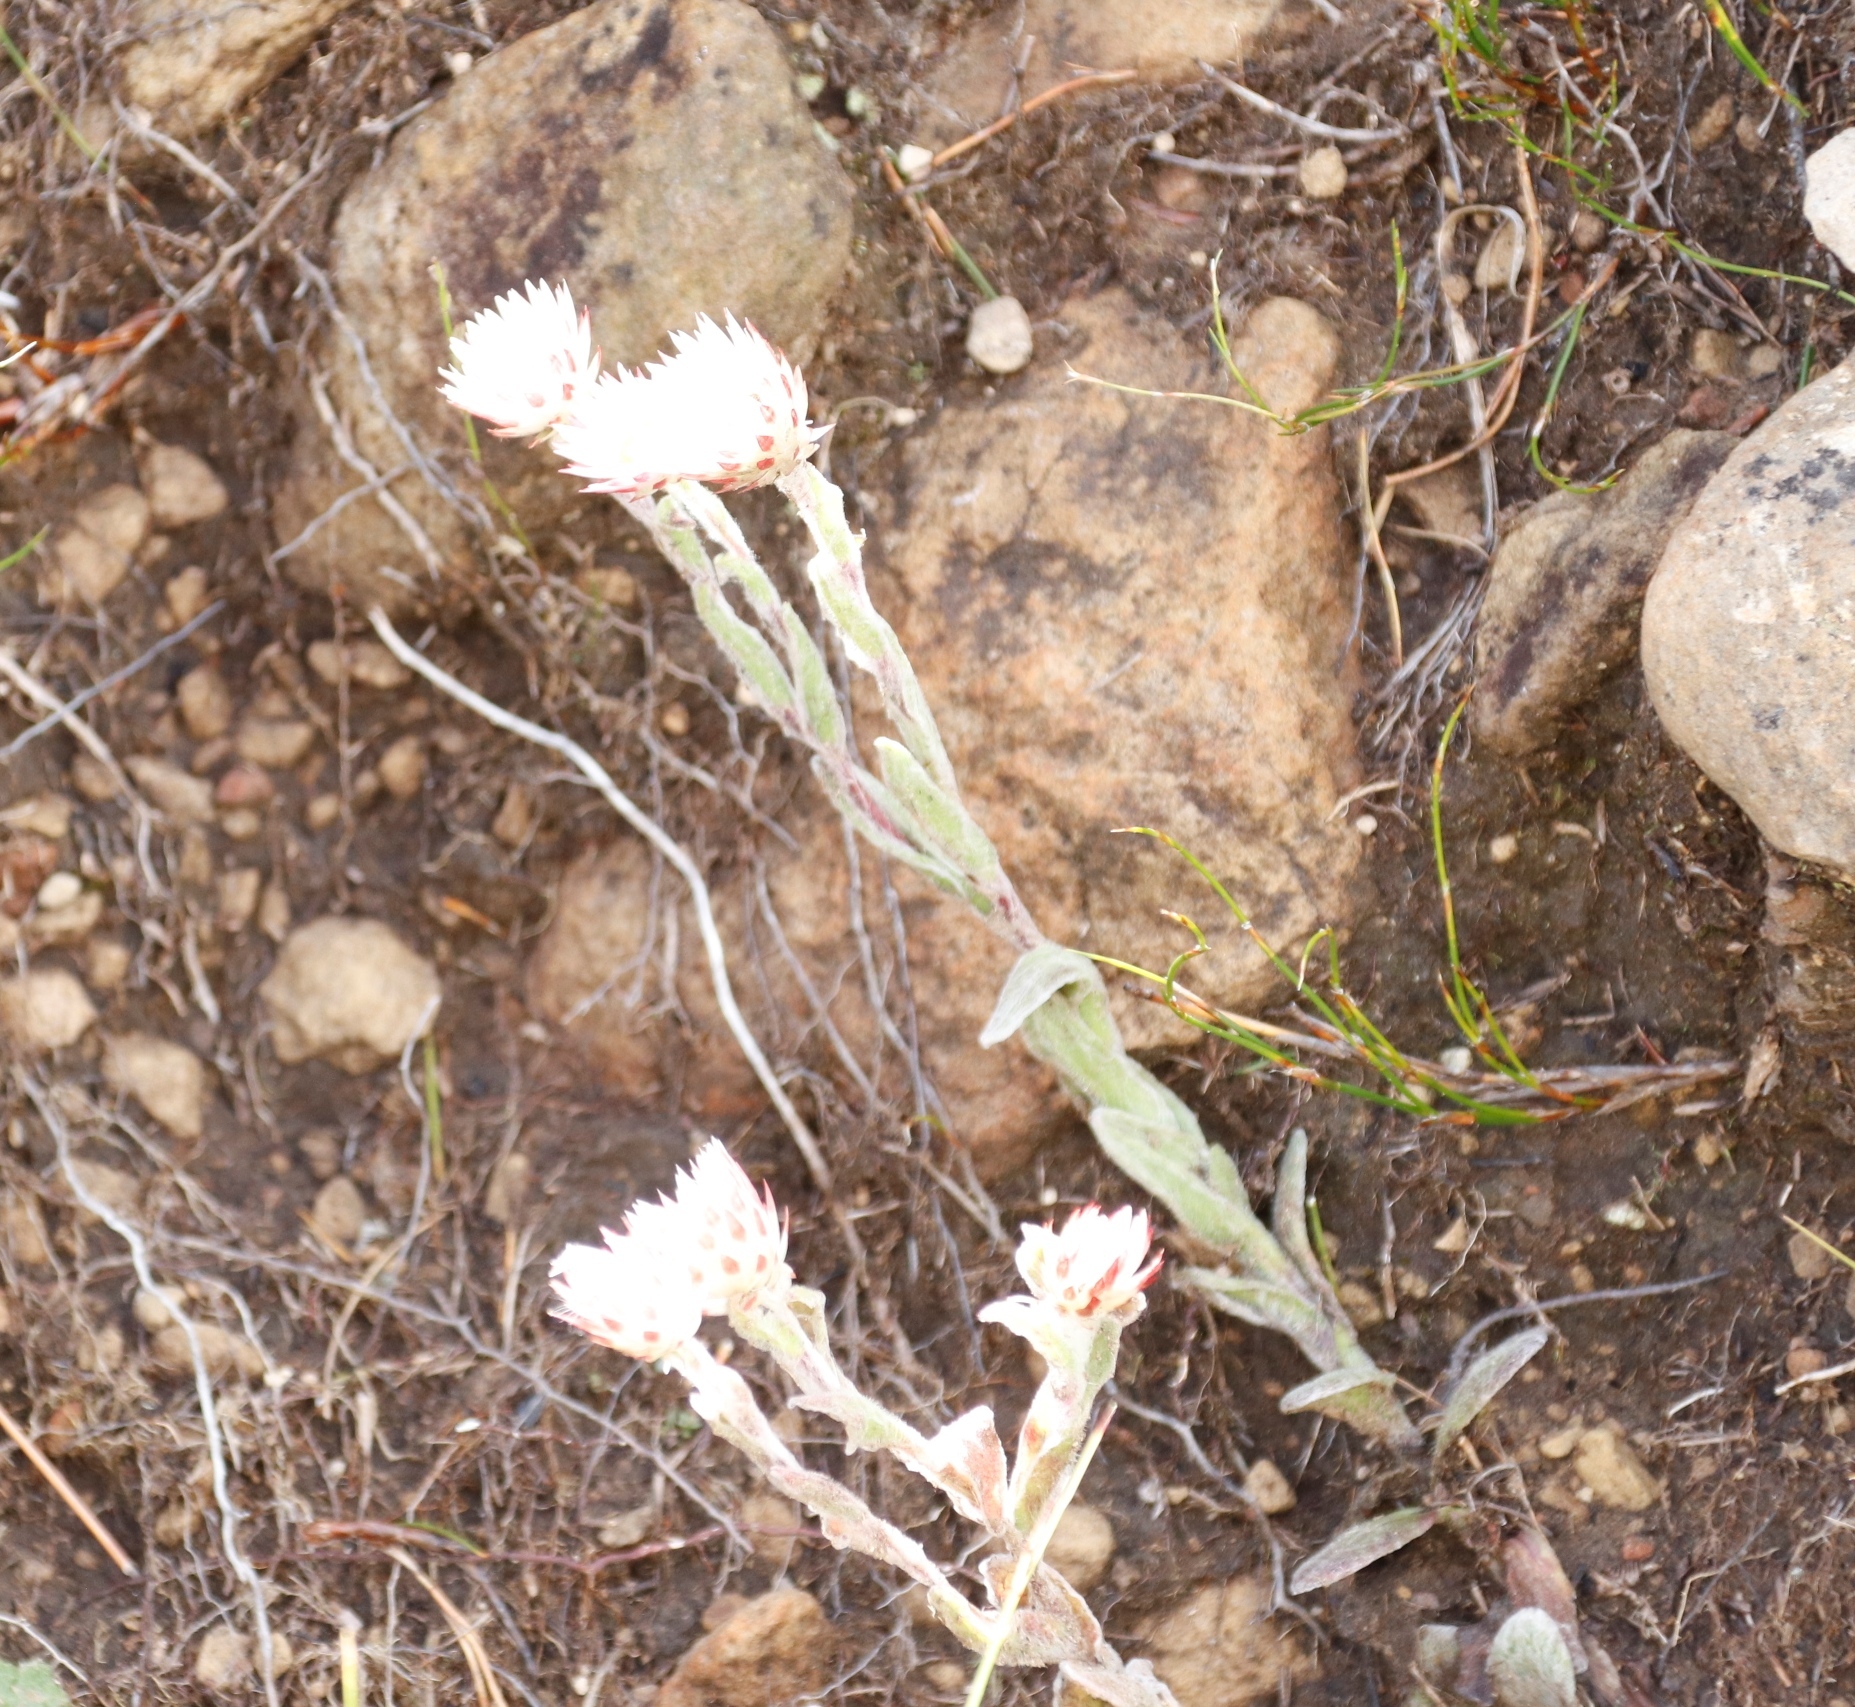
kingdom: Plantae
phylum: Tracheophyta
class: Magnoliopsida
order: Asterales
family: Asteraceae
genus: Helichrysum
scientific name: Helichrysum adenocarpum
